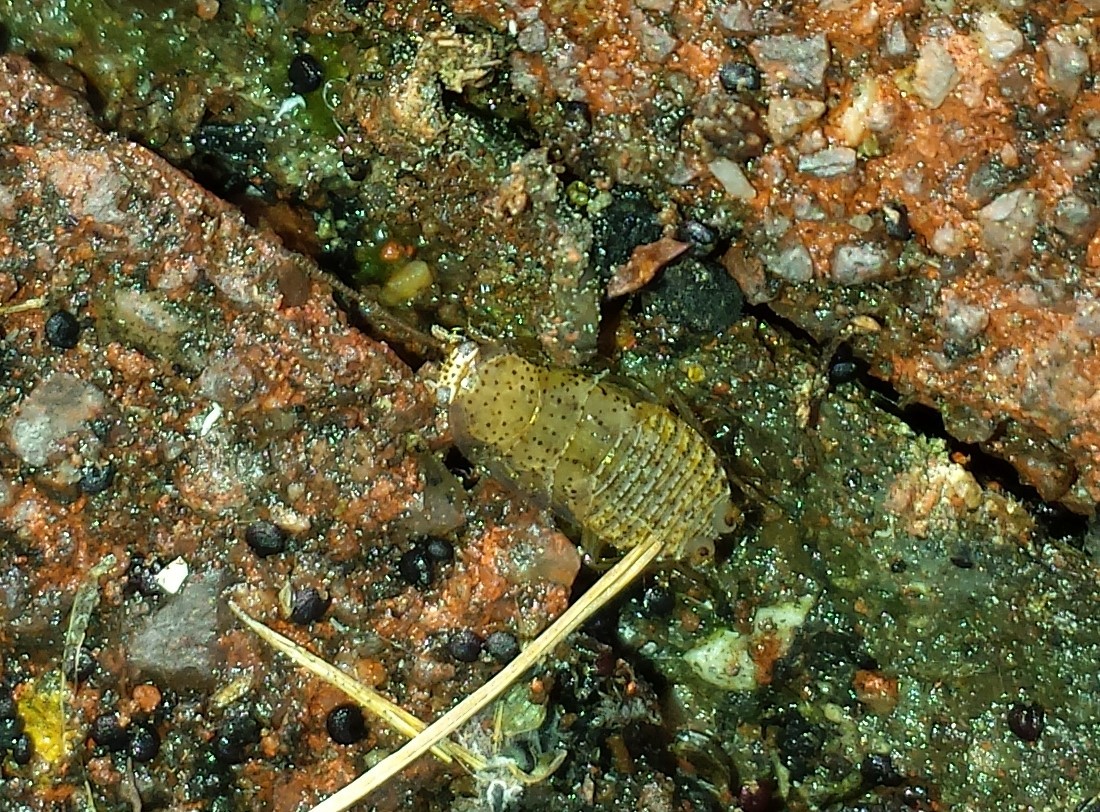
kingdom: Animalia
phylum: Arthropoda
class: Insecta
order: Blattodea
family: Ectobiidae
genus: Ectobius
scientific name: Ectobius pallidus
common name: Tawny cockroach
